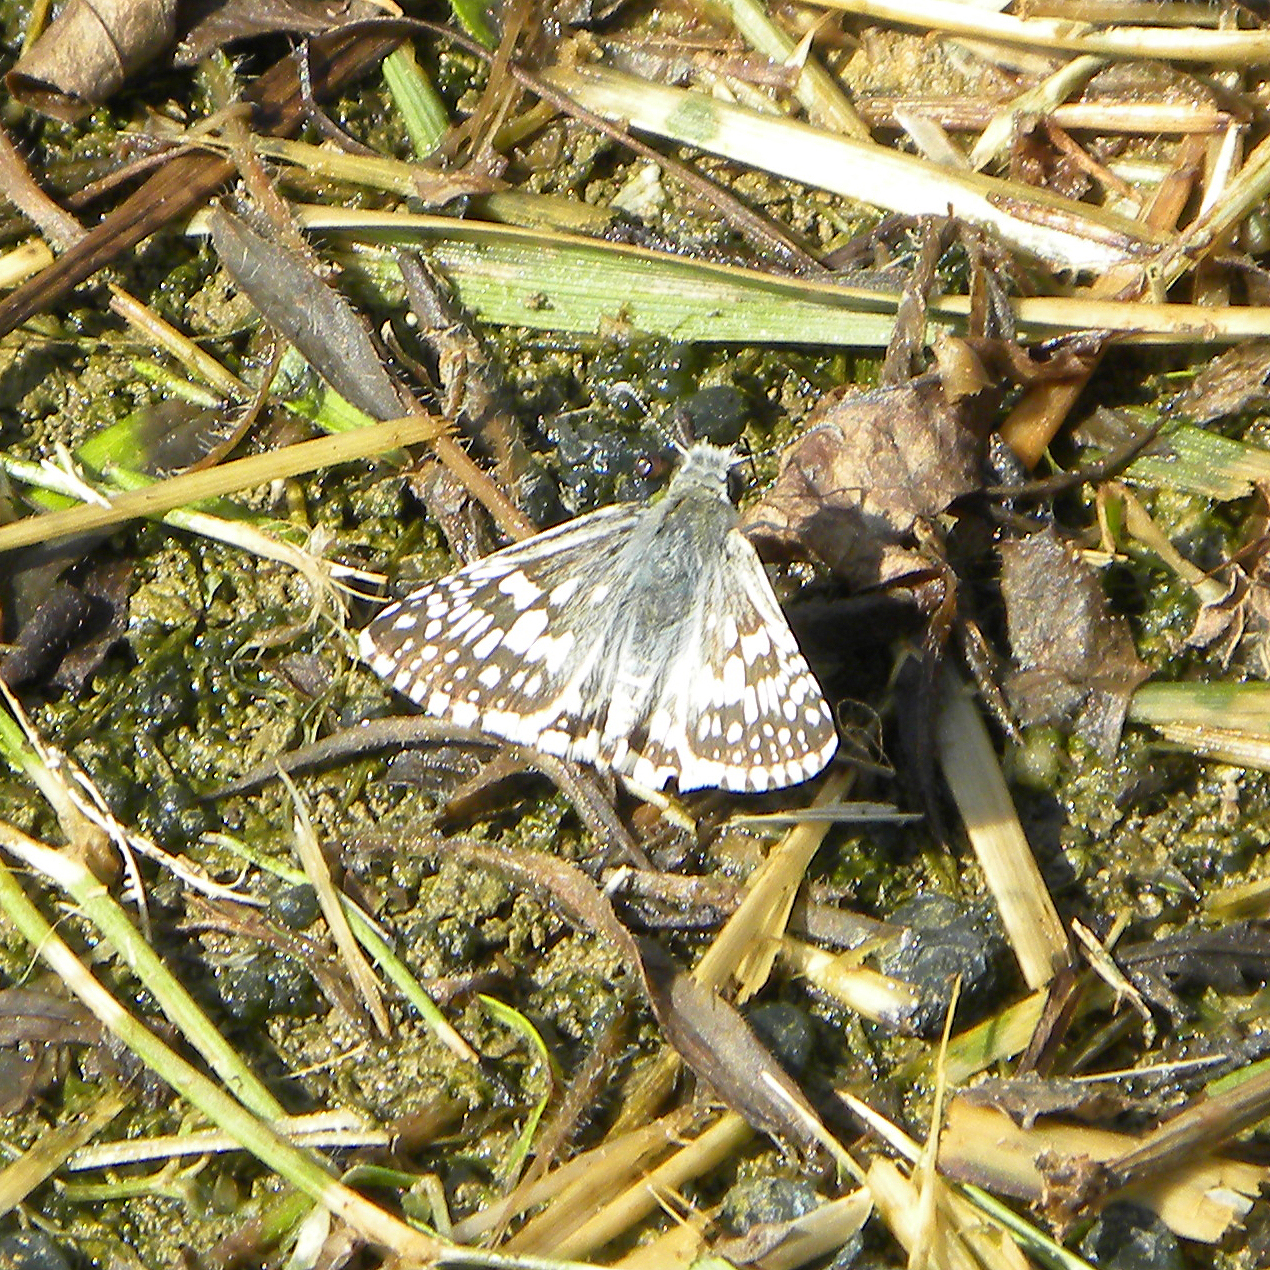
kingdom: Animalia
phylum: Arthropoda
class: Insecta
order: Lepidoptera
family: Hesperiidae
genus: Burnsius
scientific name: Burnsius communis
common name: Common checkered-skipper
